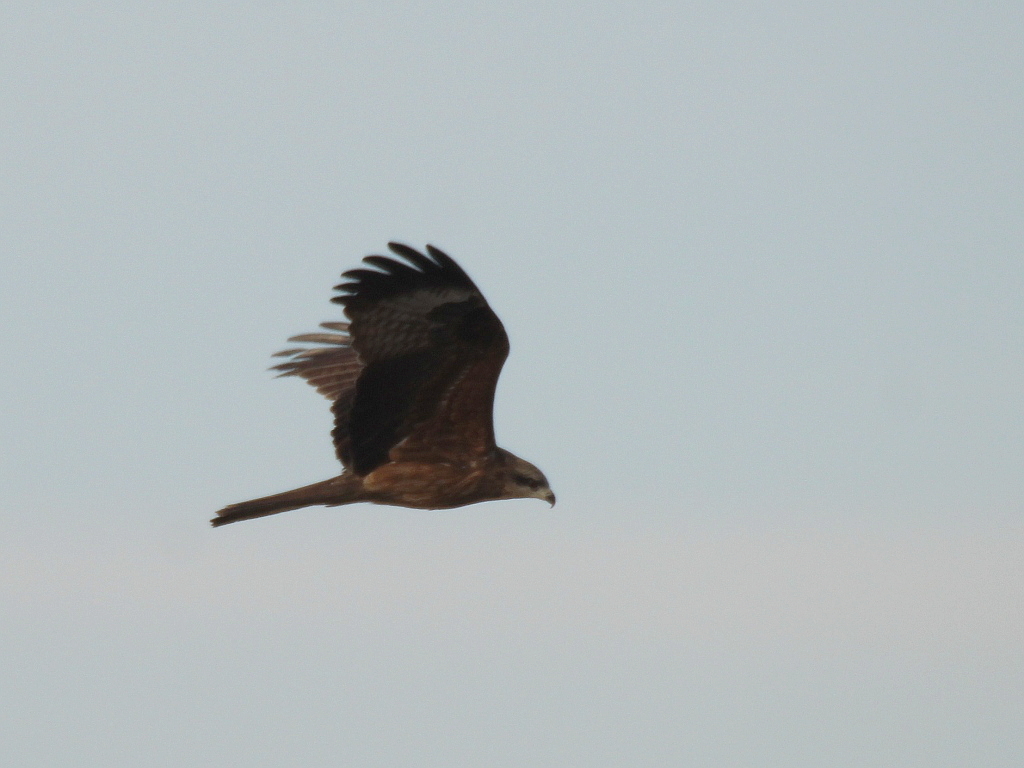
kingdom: Animalia
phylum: Chordata
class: Aves
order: Accipitriformes
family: Accipitridae
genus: Milvus
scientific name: Milvus migrans
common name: Black kite
